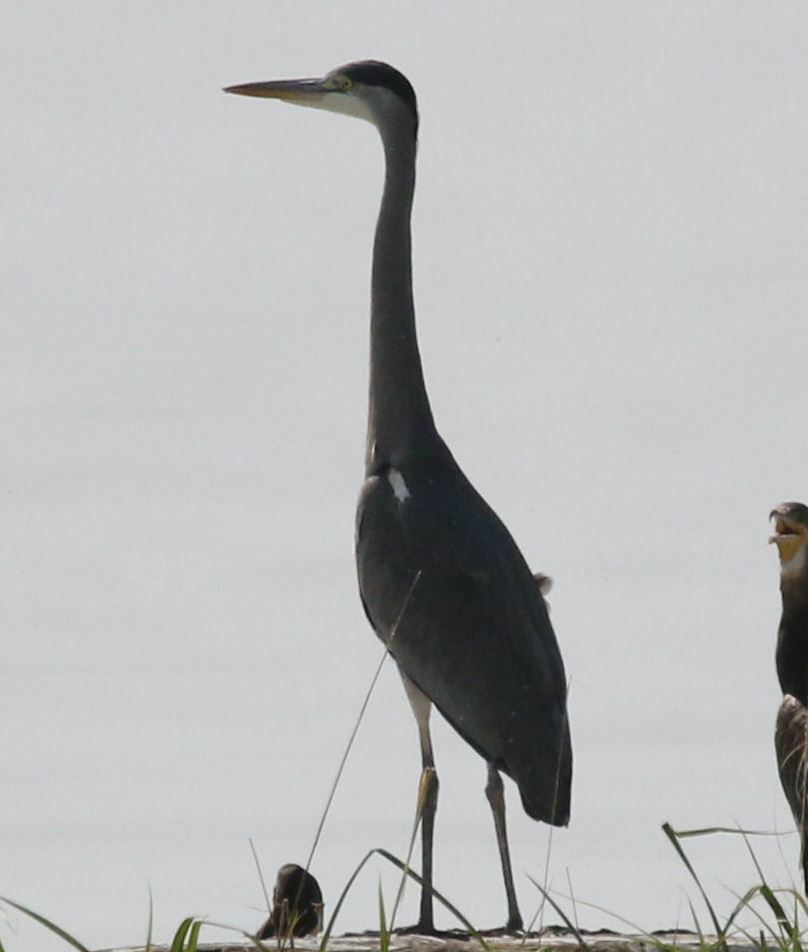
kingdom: Animalia
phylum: Chordata
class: Aves
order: Pelecaniformes
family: Ardeidae
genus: Ardea
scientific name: Ardea cinerea
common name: Grey heron
